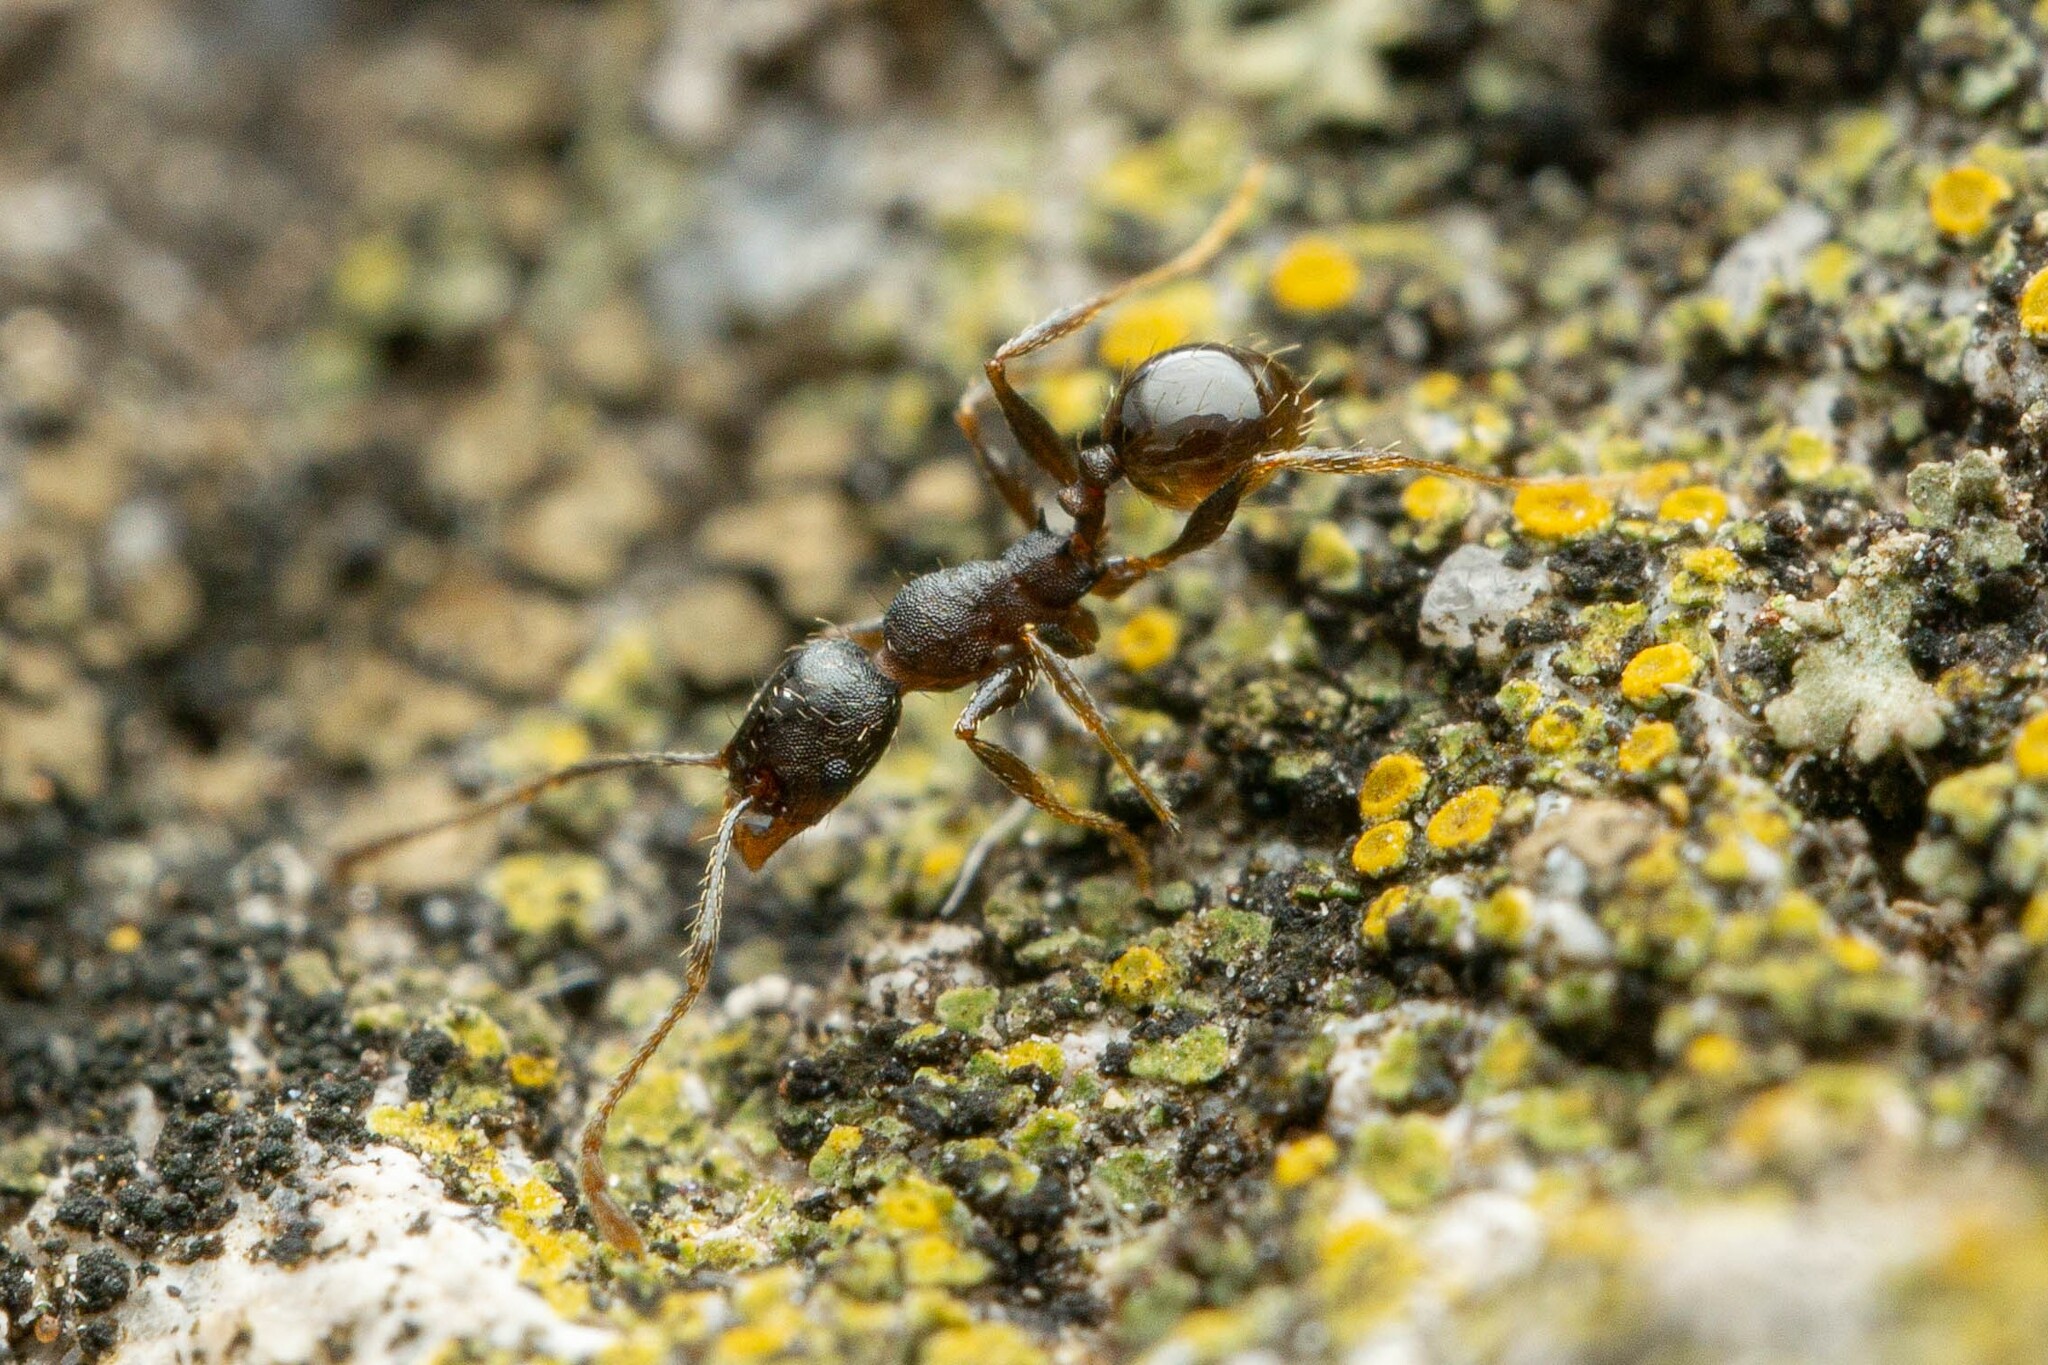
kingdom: Animalia
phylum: Arthropoda
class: Insecta
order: Hymenoptera
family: Formicidae
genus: Pheidole
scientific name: Pheidole sciophila
